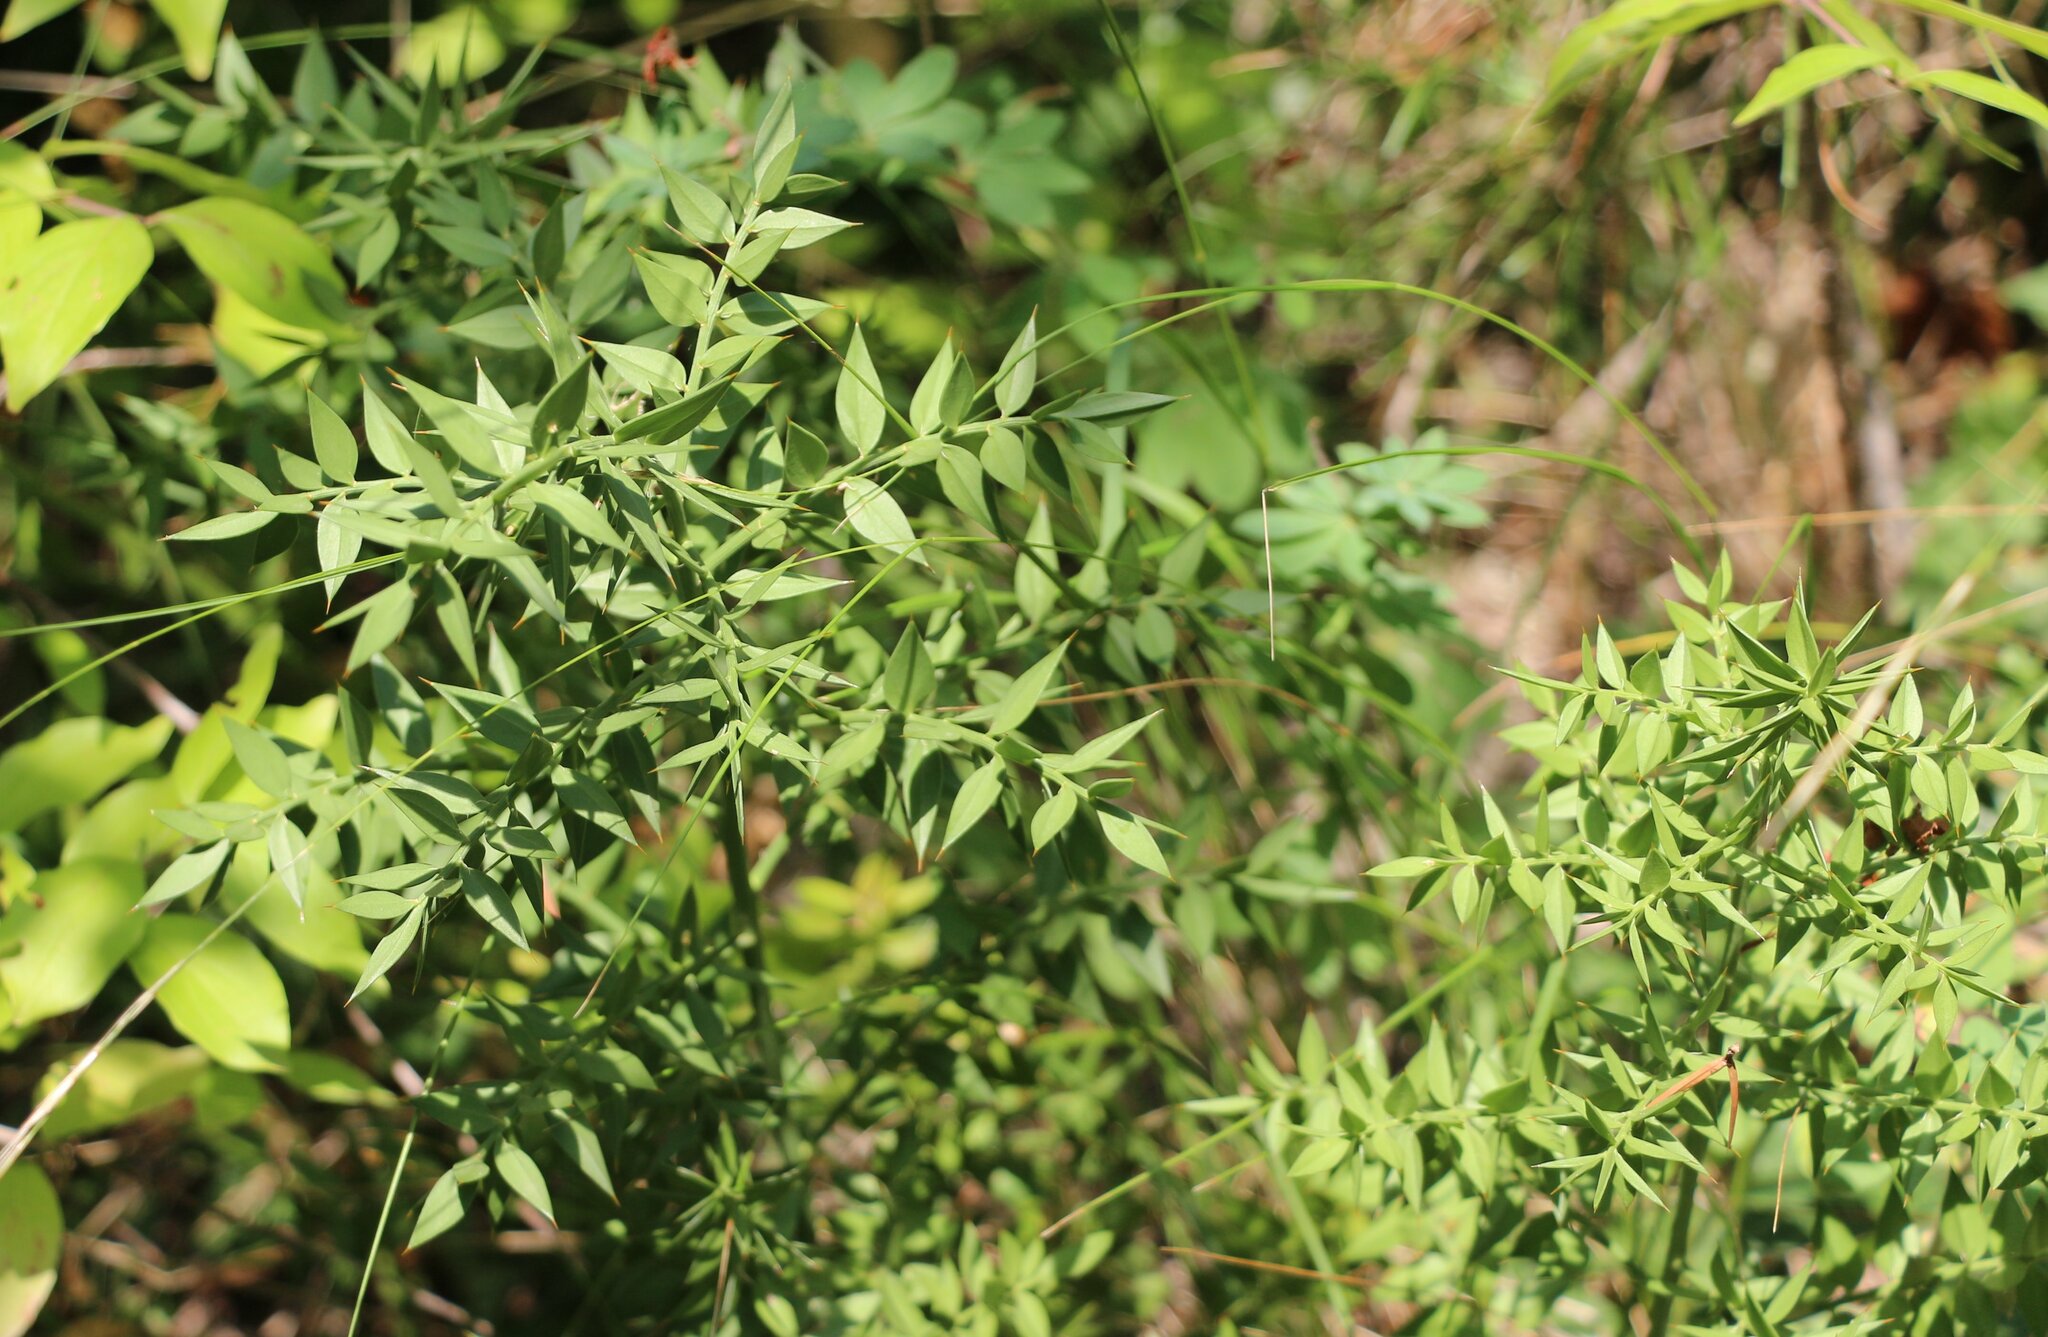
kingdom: Plantae
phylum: Tracheophyta
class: Liliopsida
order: Asparagales
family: Asparagaceae
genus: Ruscus
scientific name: Ruscus aculeatus
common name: Butcher's-broom
